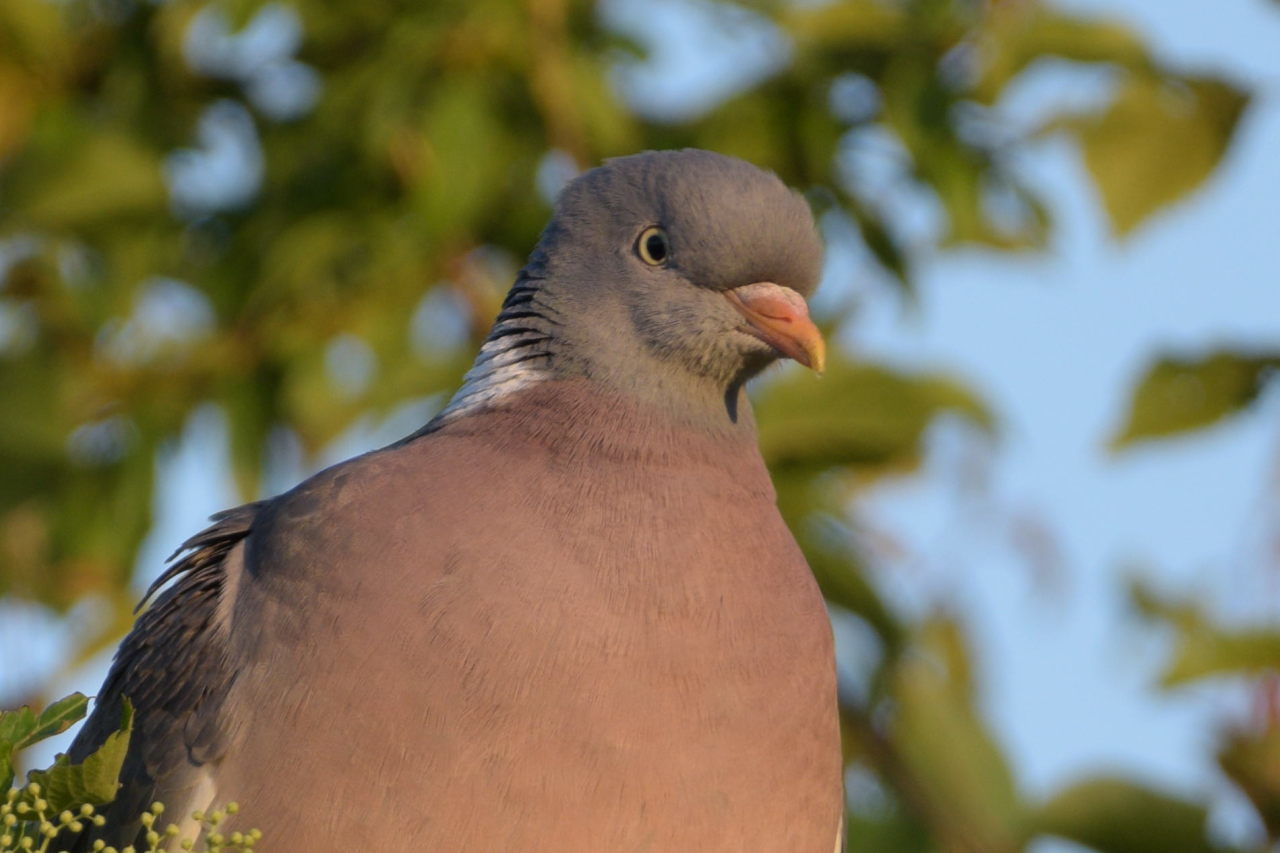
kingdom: Animalia
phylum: Chordata
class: Aves
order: Columbiformes
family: Columbidae
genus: Columba
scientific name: Columba palumbus
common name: Common wood pigeon
